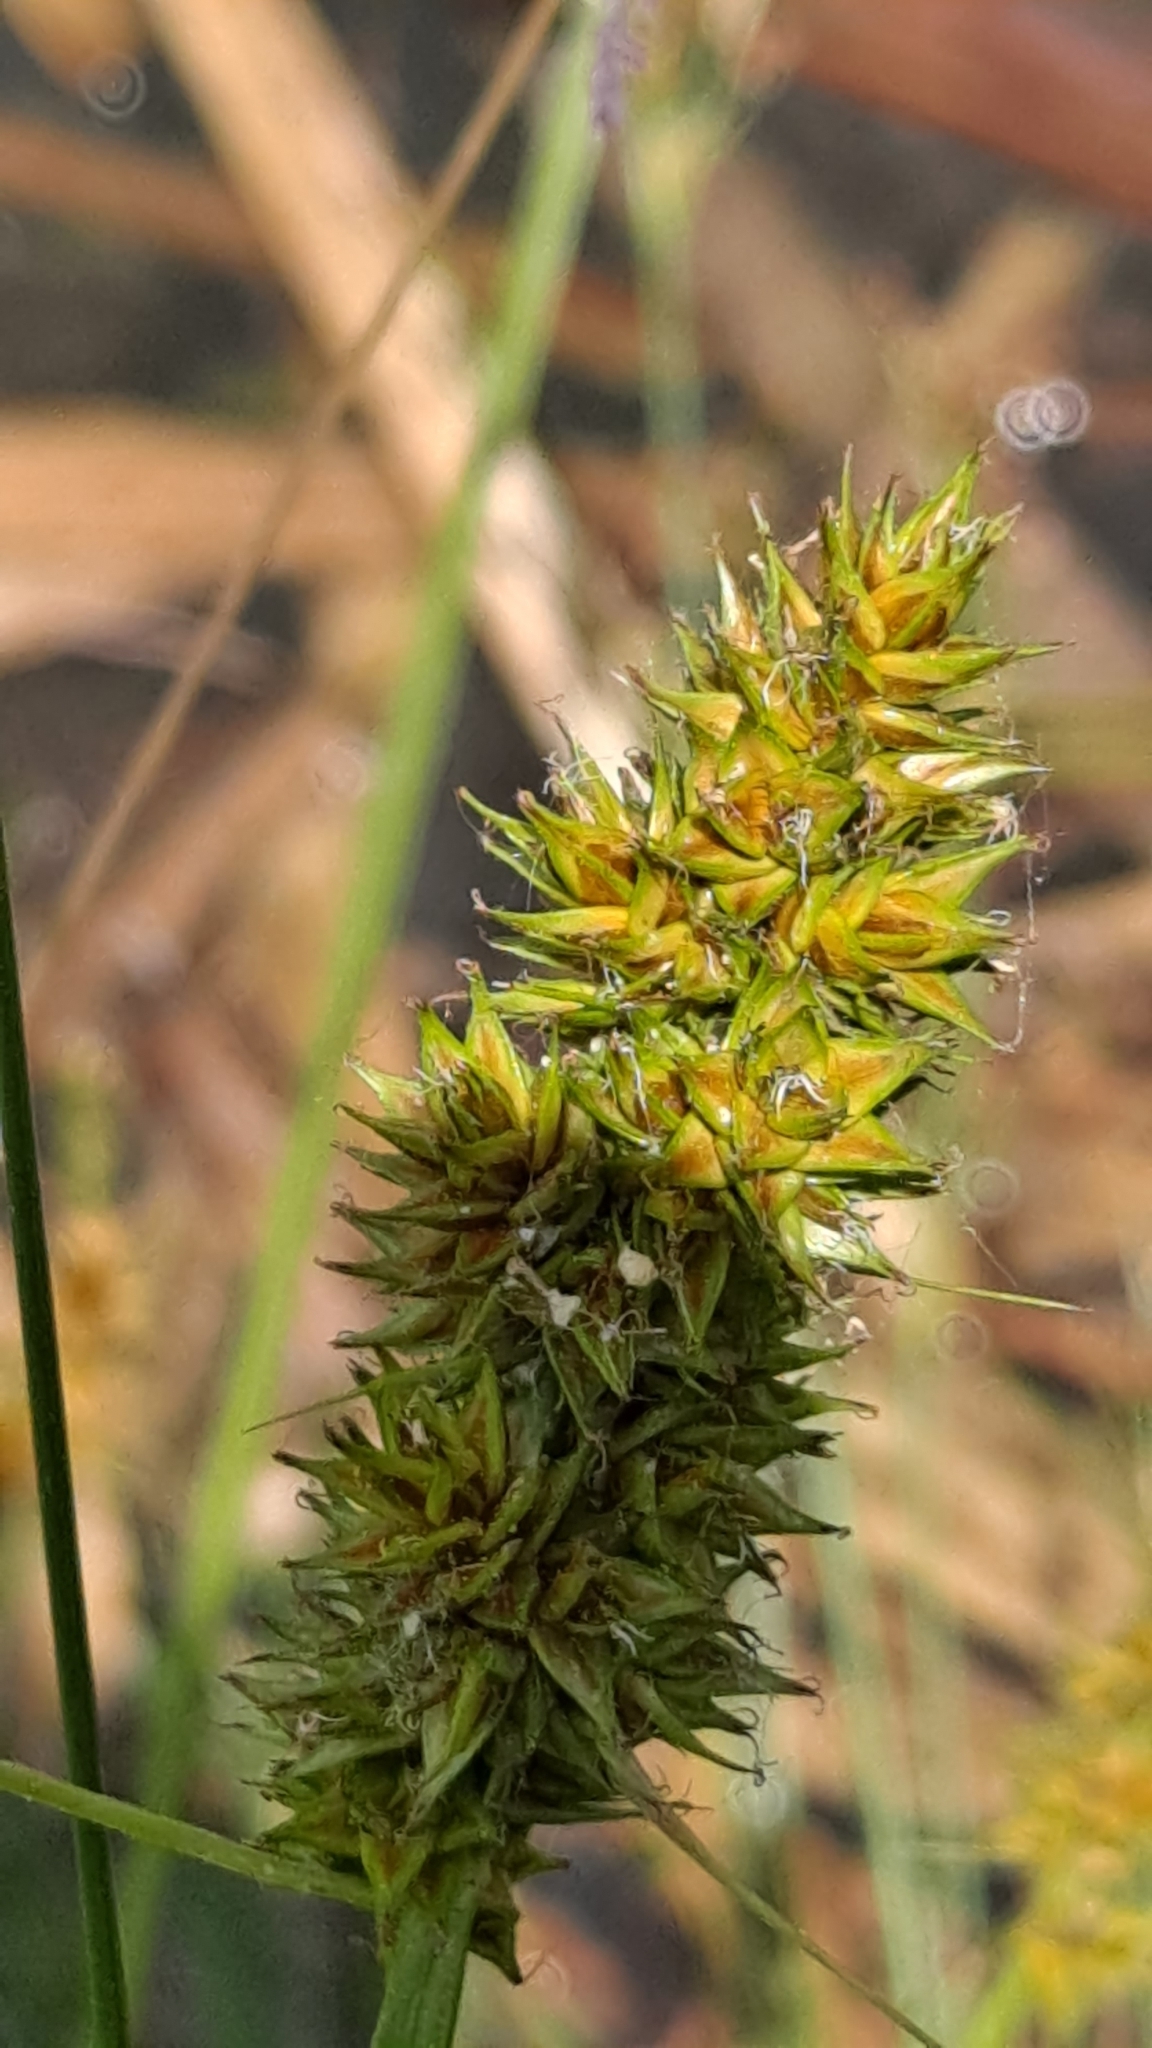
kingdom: Plantae
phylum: Tracheophyta
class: Liliopsida
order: Poales
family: Cyperaceae
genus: Carex
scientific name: Carex otrubae
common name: False fox-sedge
